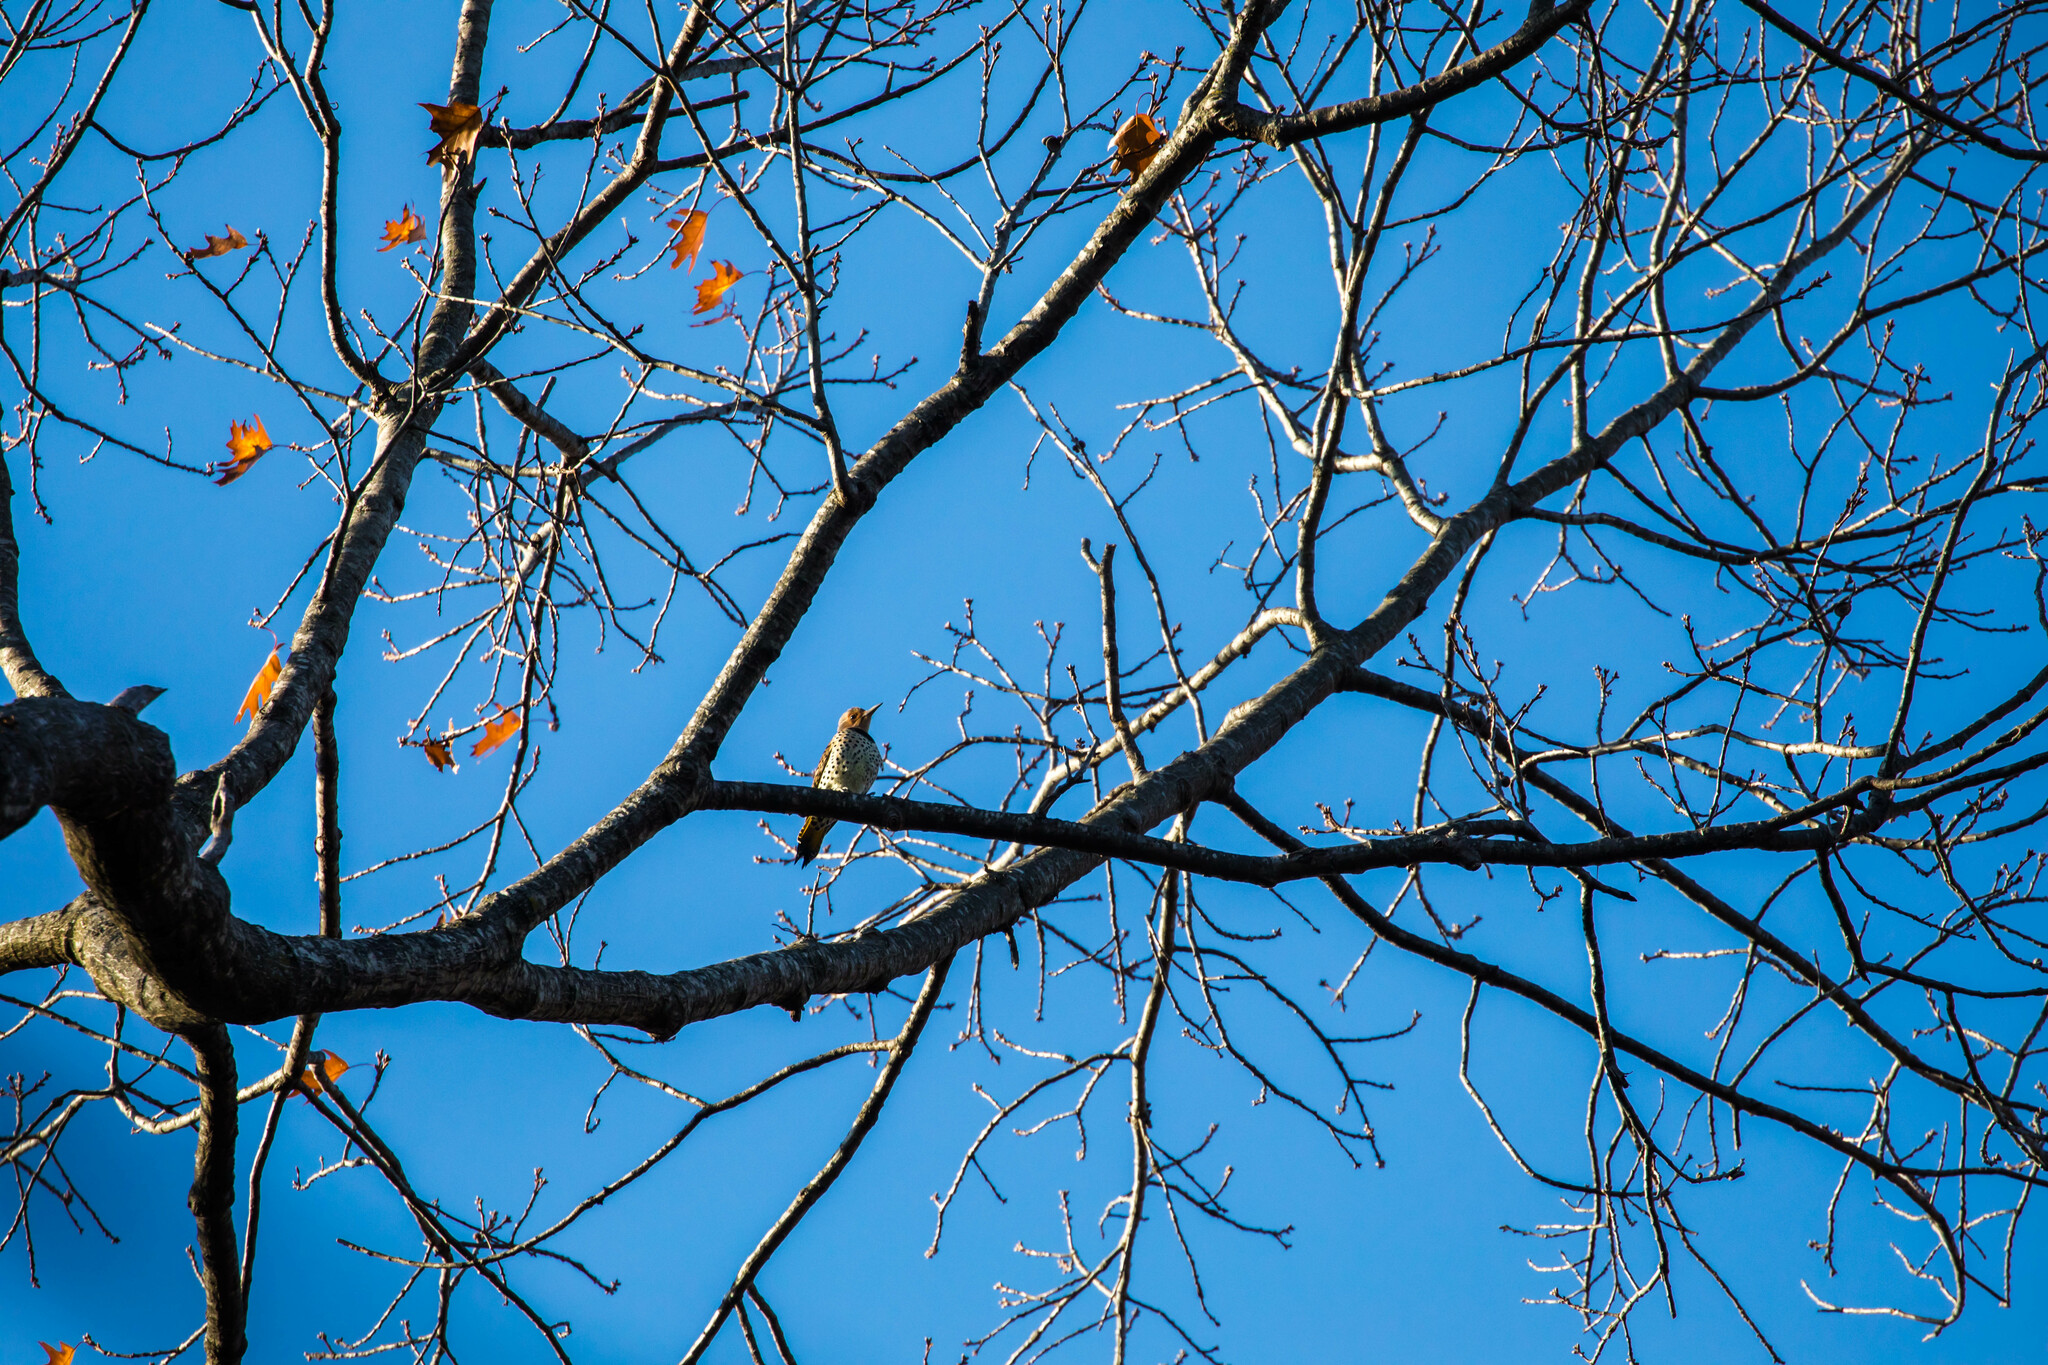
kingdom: Animalia
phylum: Chordata
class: Aves
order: Piciformes
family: Picidae
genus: Colaptes
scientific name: Colaptes auratus
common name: Northern flicker
